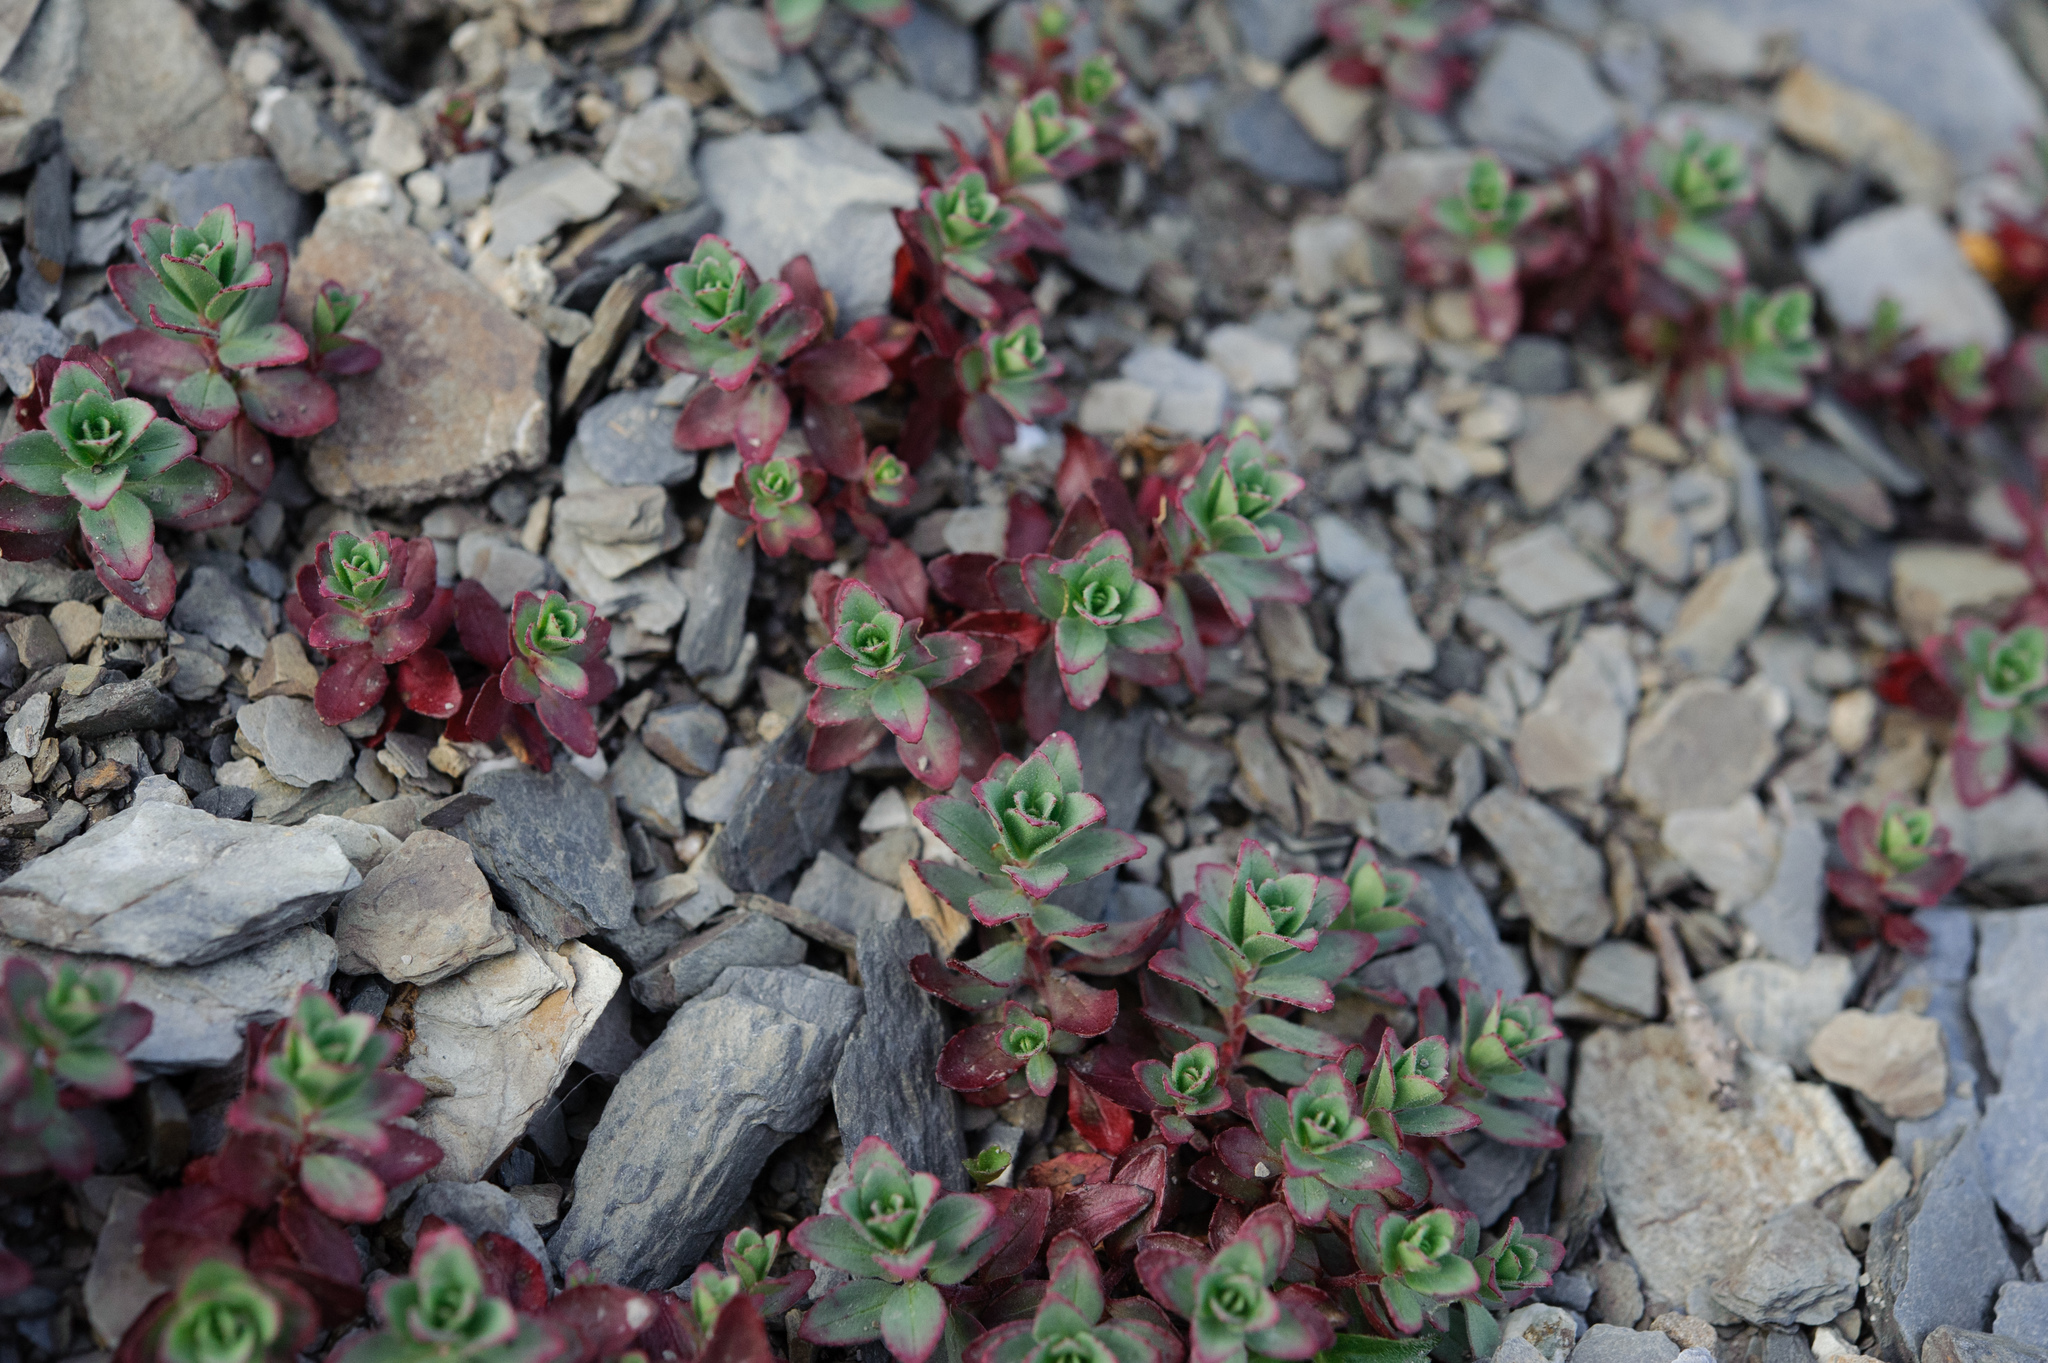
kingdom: Plantae
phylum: Tracheophyta
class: Magnoliopsida
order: Myrtales
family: Onagraceae
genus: Epilobium
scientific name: Epilobium nankotaizanense
